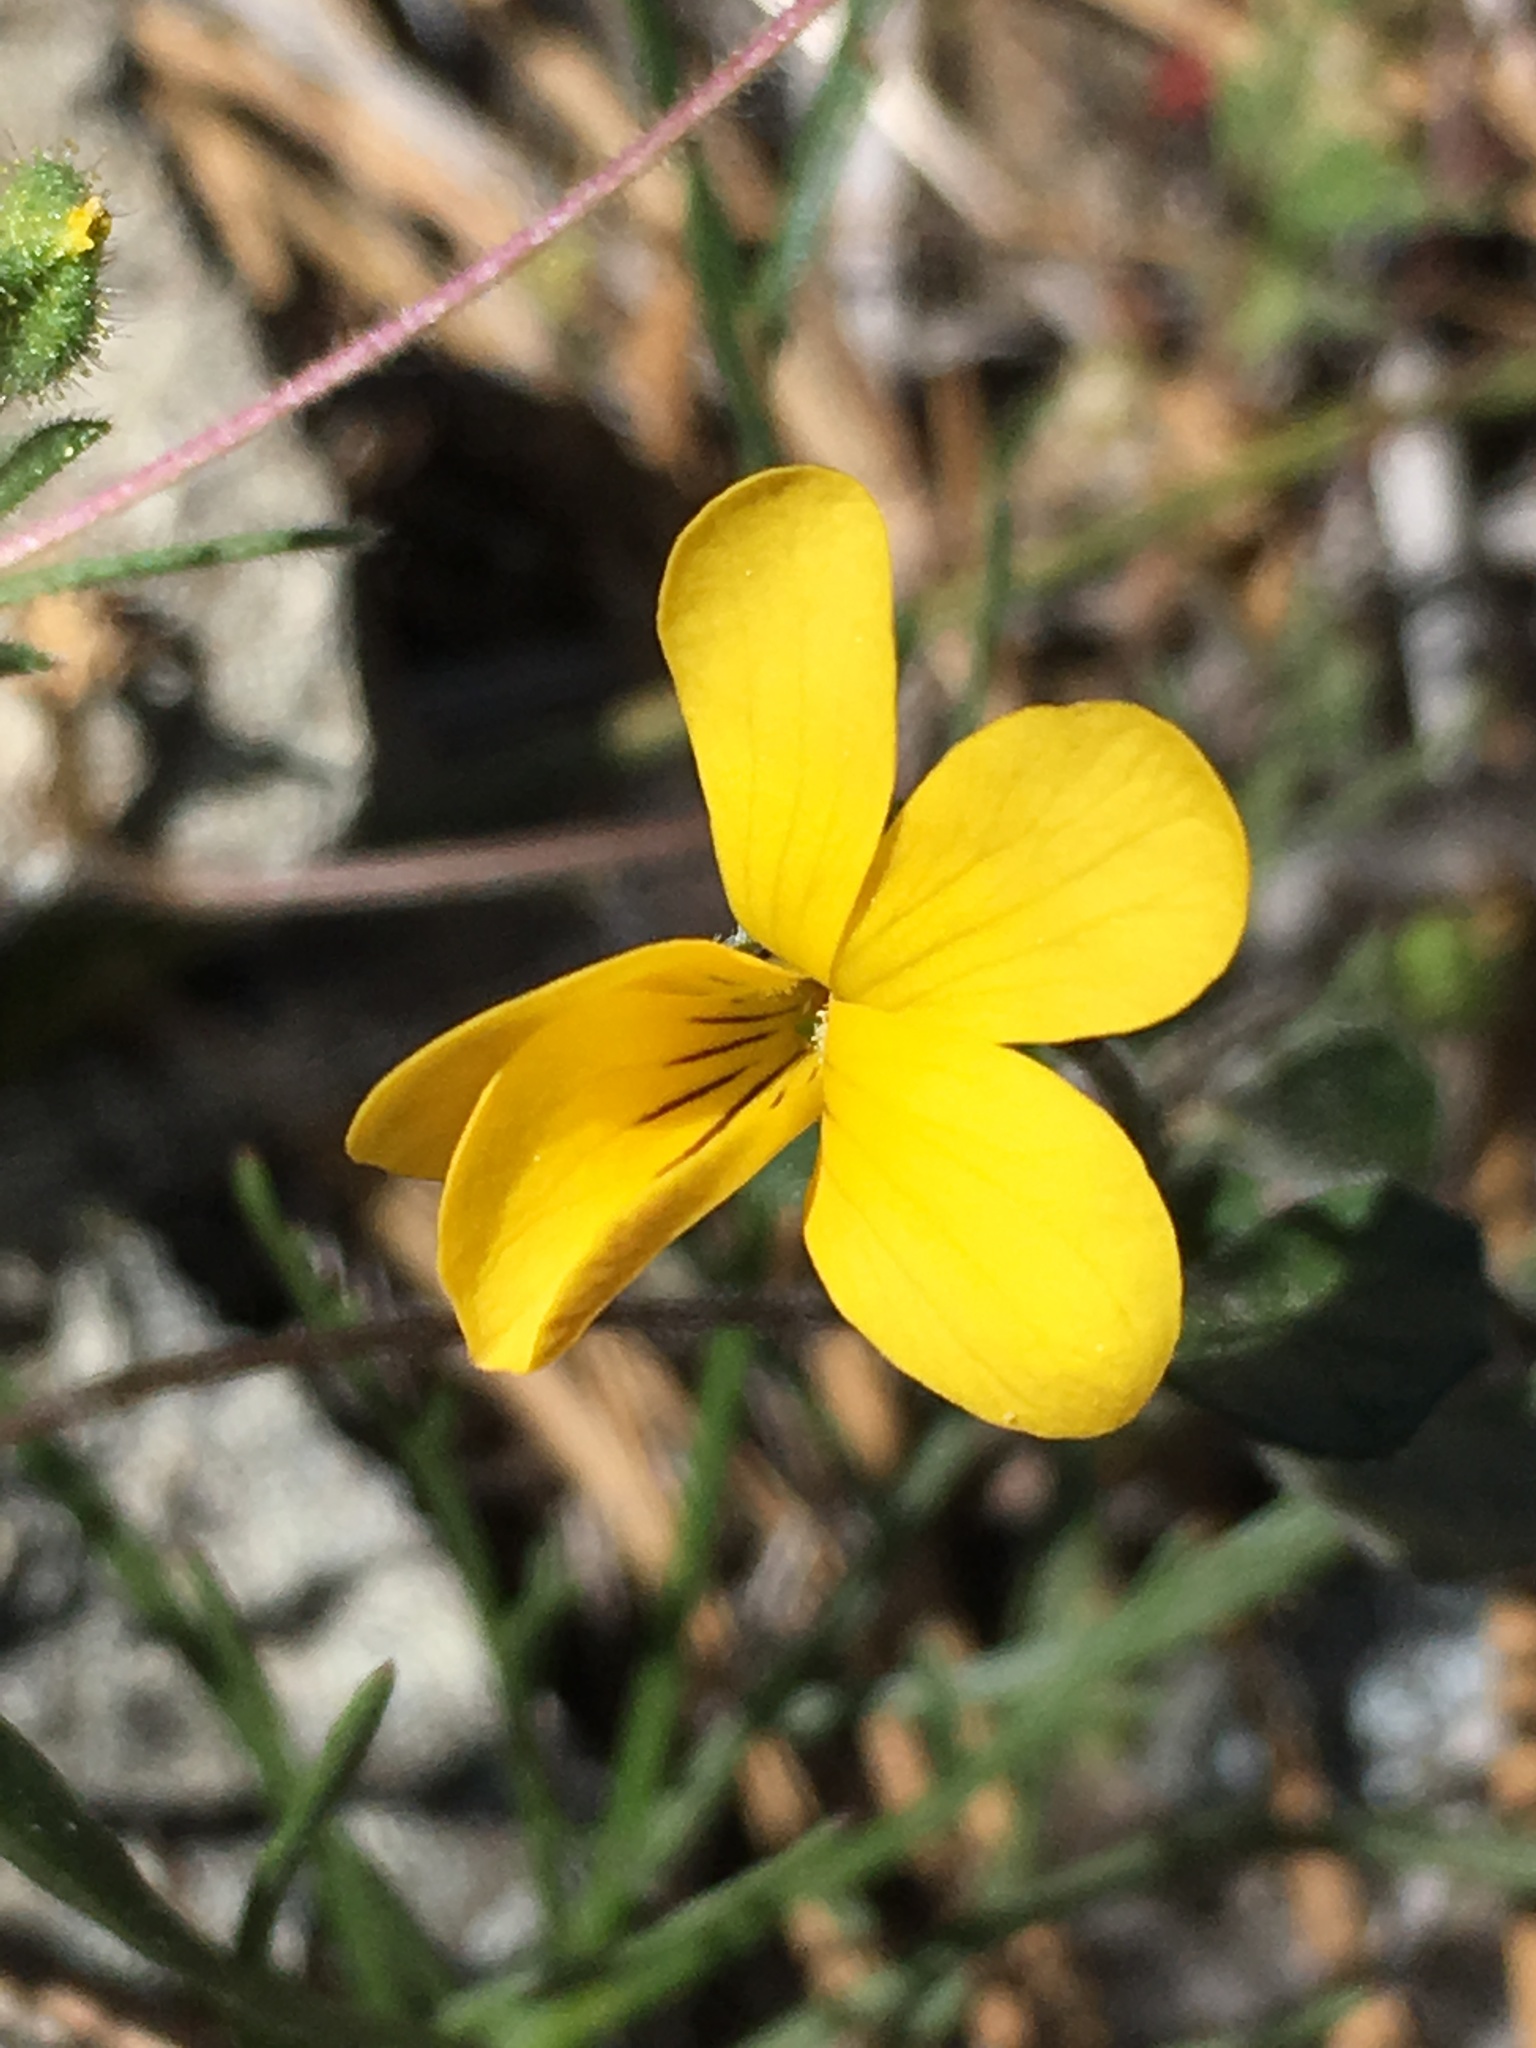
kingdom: Plantae
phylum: Tracheophyta
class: Magnoliopsida
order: Malpighiales
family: Violaceae
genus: Viola
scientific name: Viola purpurea
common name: Pine violet
